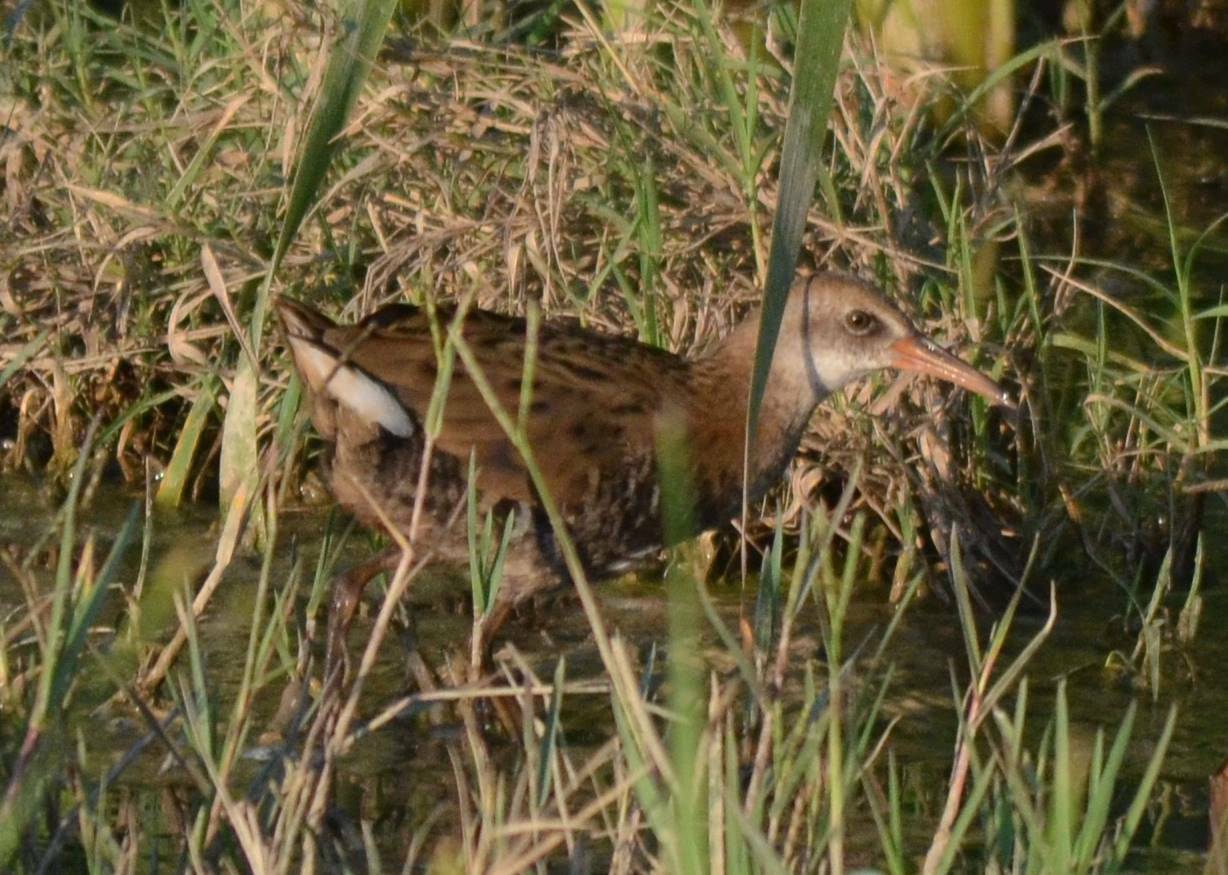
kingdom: Animalia
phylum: Chordata
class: Aves
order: Gruiformes
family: Rallidae
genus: Rallus
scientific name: Rallus aquaticus
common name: Water rail
